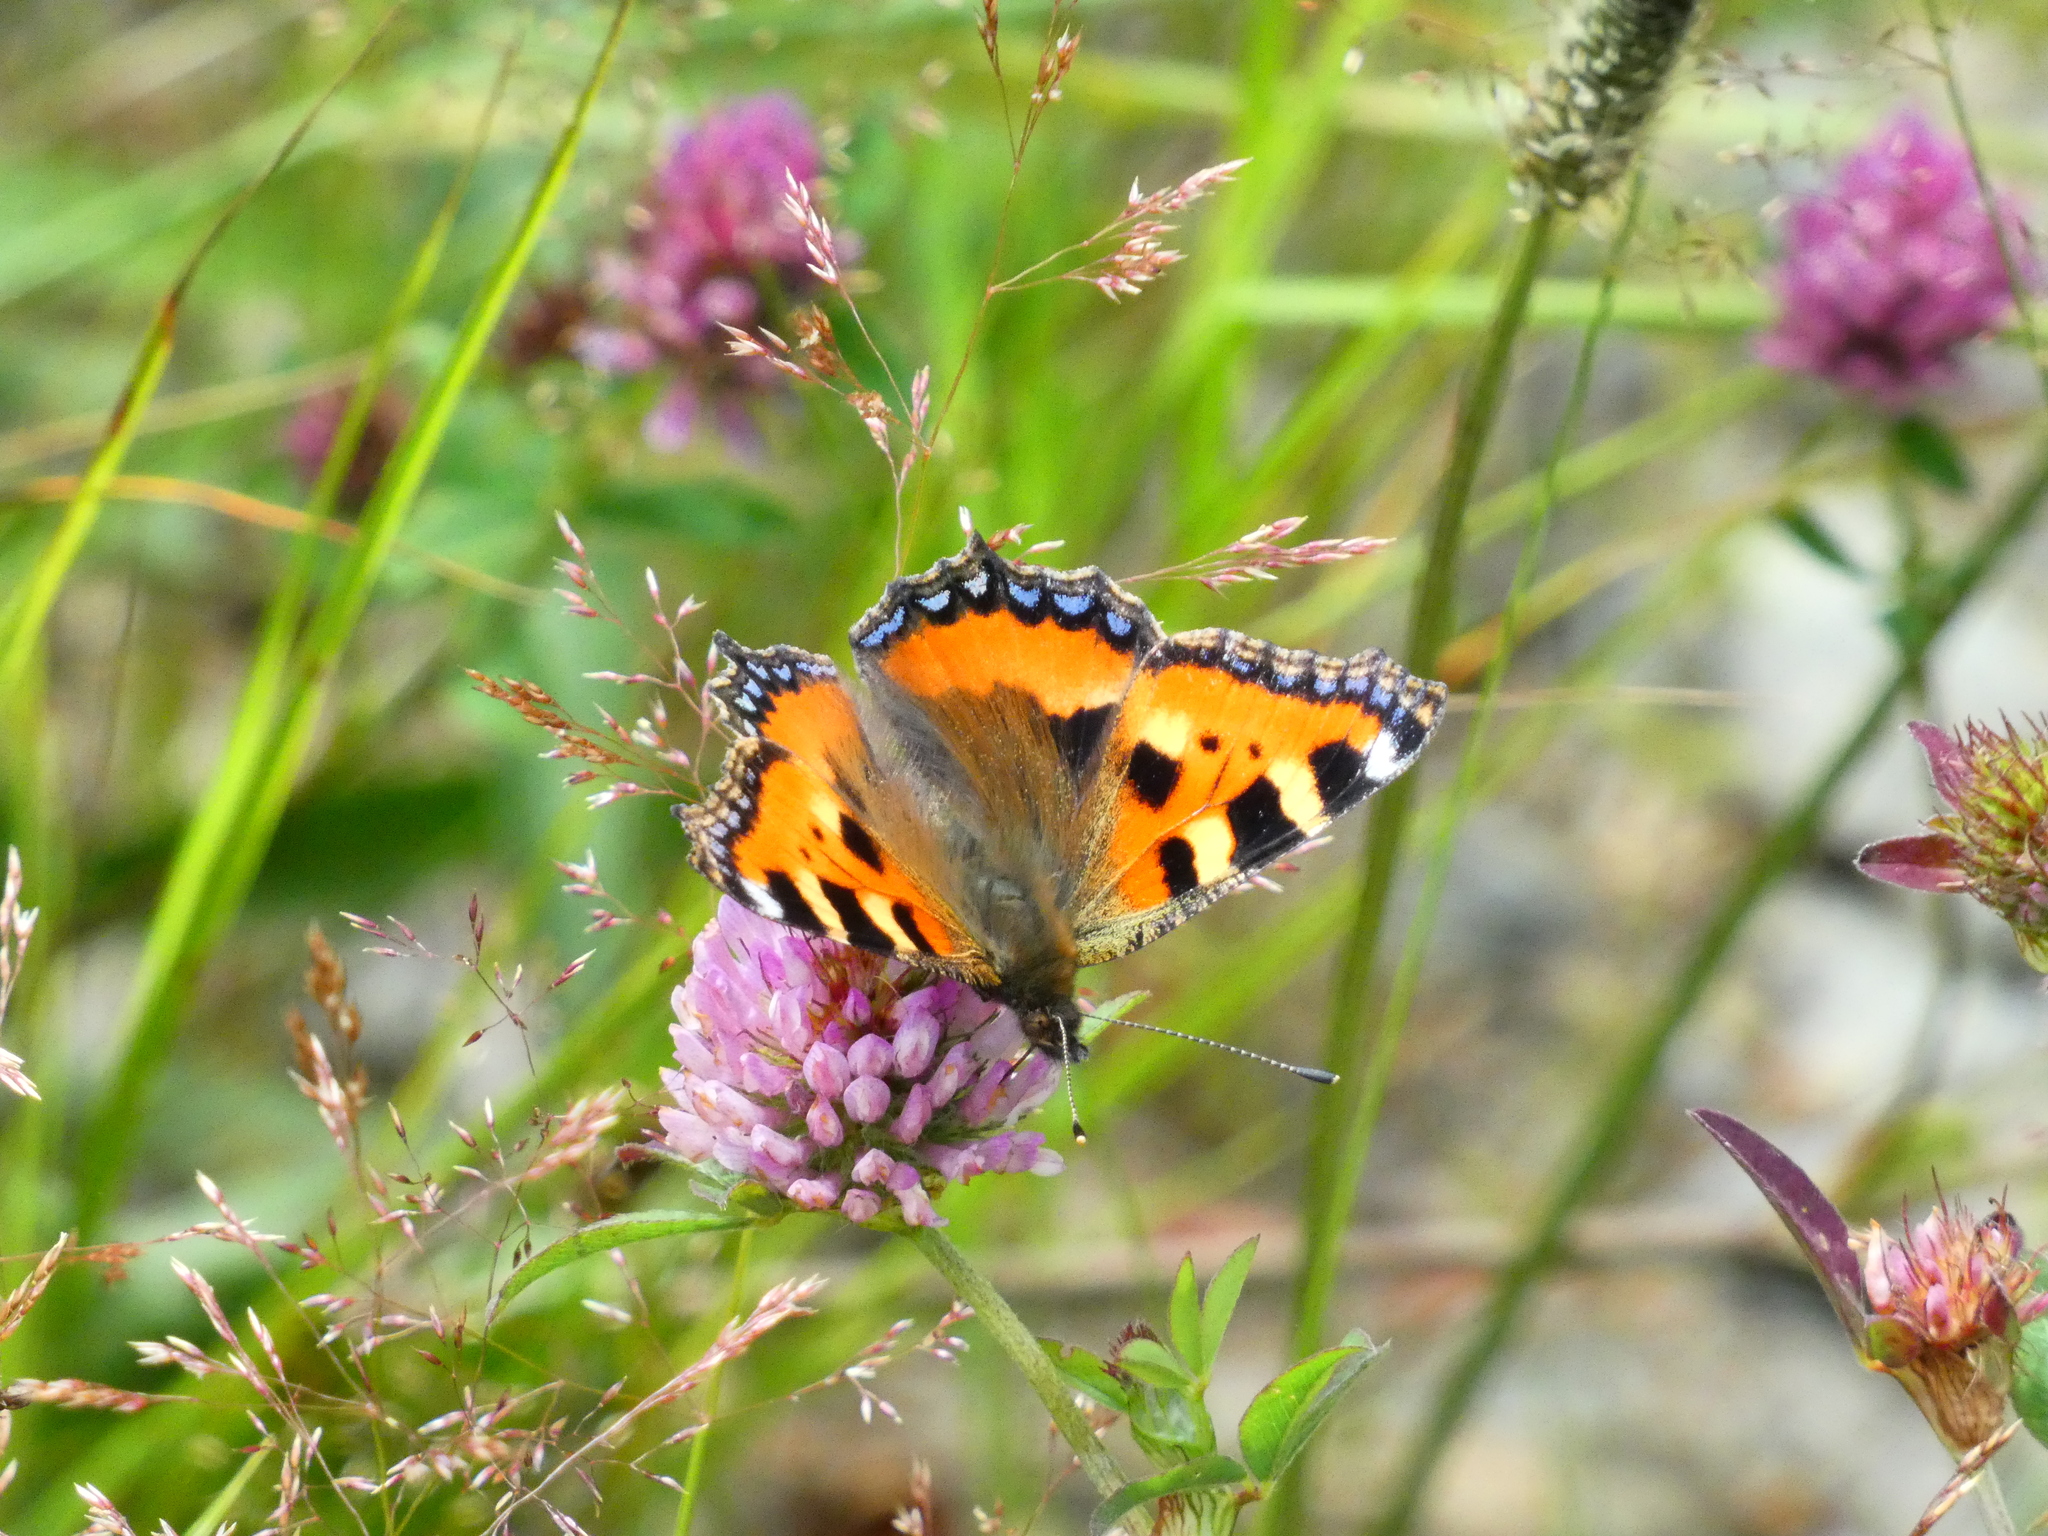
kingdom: Animalia
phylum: Arthropoda
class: Insecta
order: Lepidoptera
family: Nymphalidae
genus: Aglais
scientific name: Aglais urticae
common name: Small tortoiseshell
